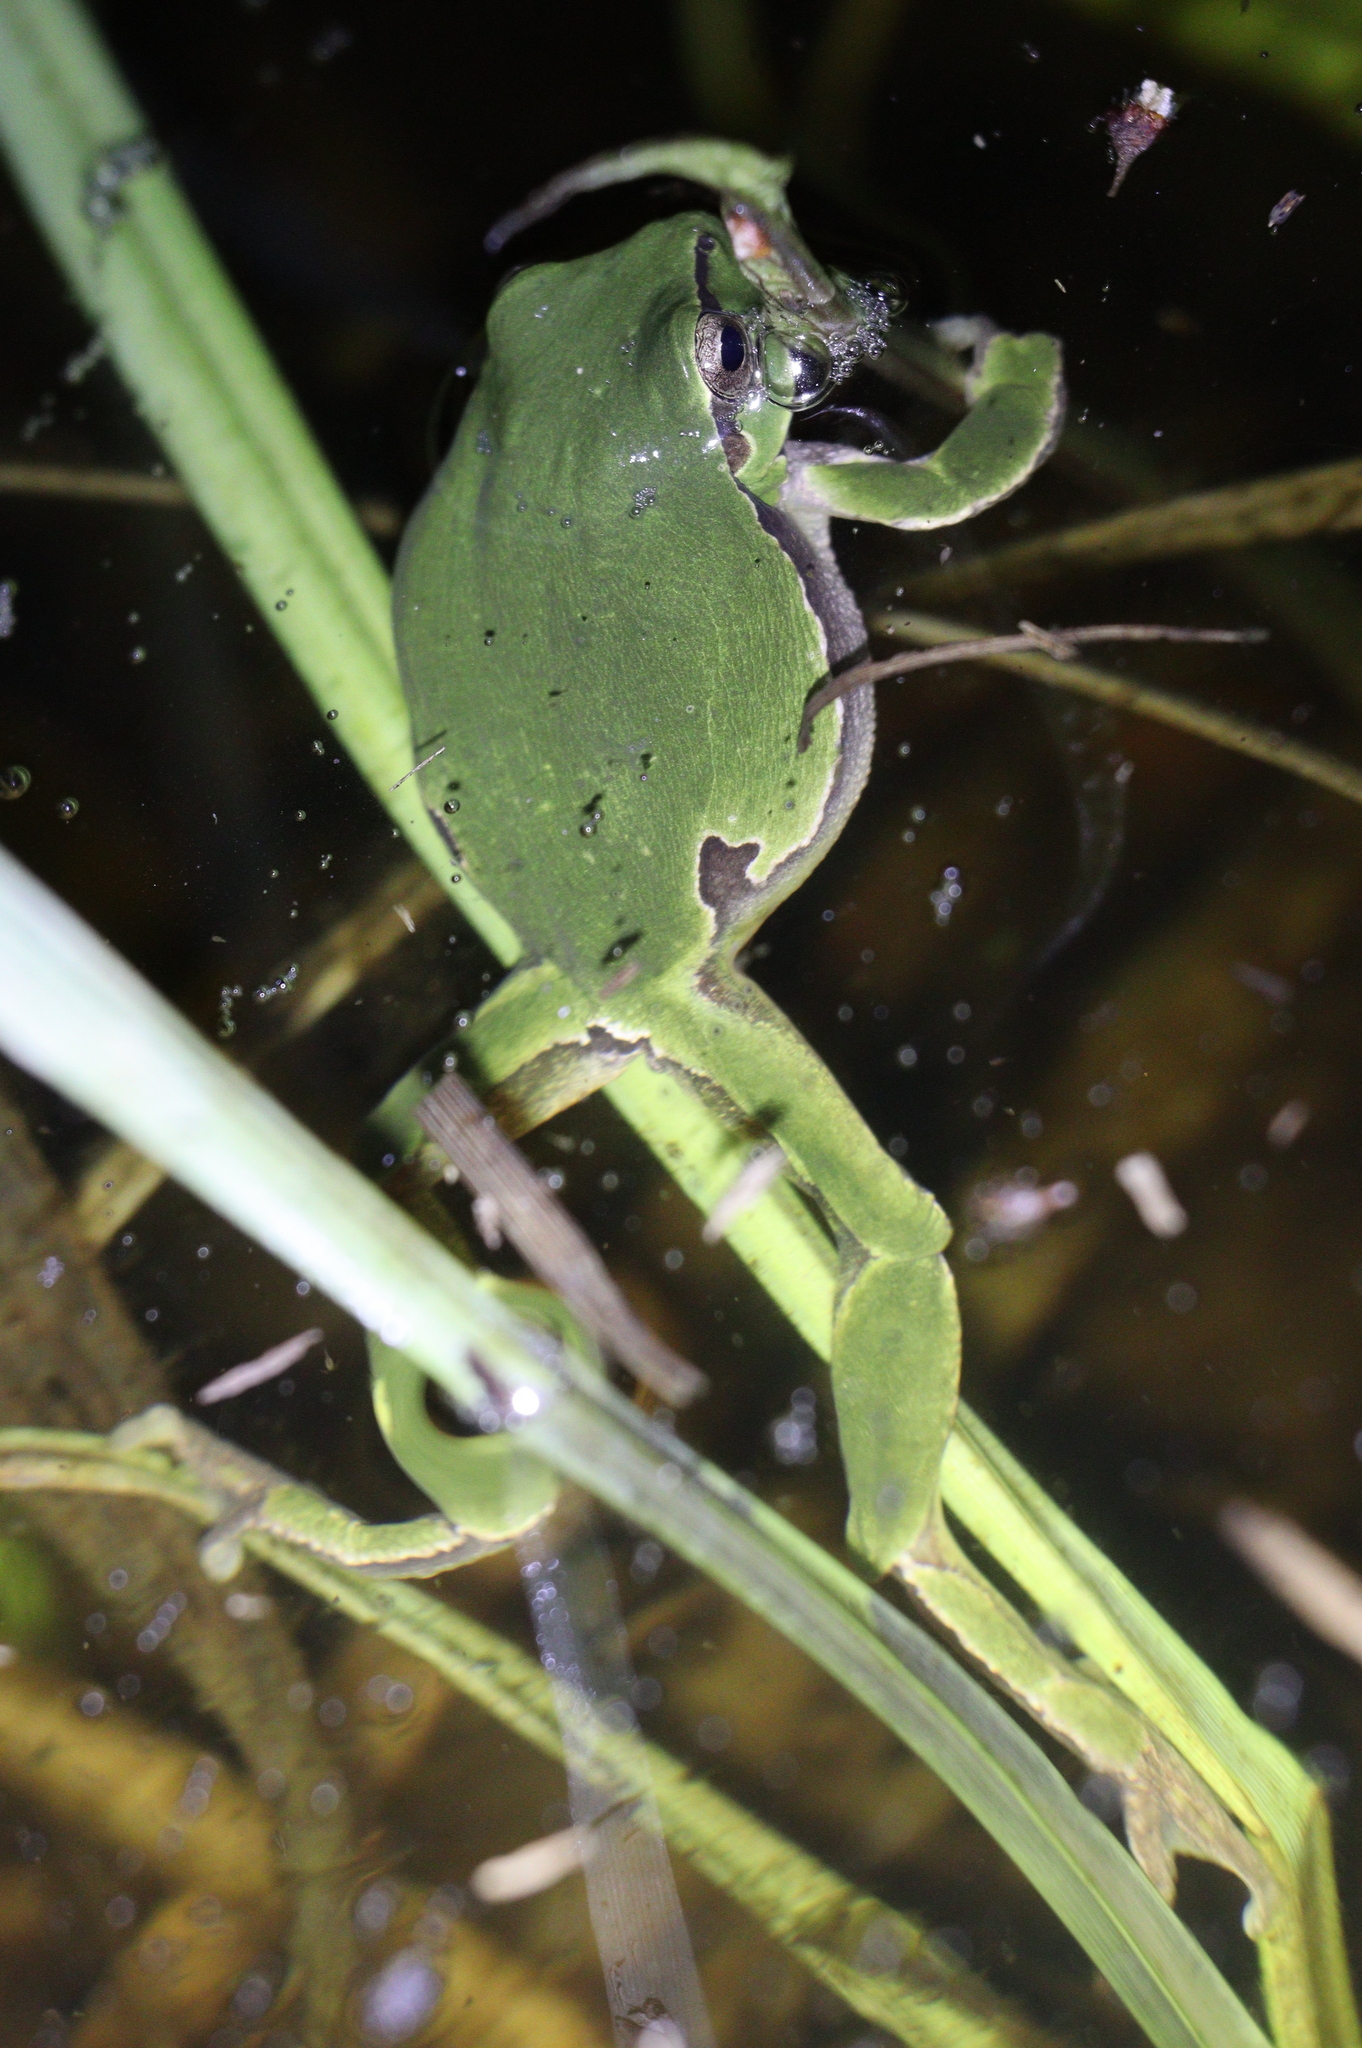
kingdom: Animalia
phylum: Chordata
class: Amphibia
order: Anura
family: Hylidae
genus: Hyla
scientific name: Hyla arborea
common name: Common tree frog
